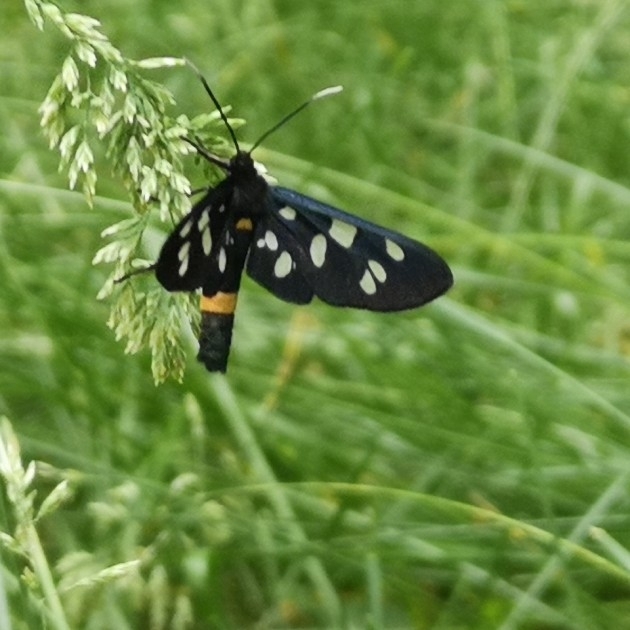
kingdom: Animalia
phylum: Arthropoda
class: Insecta
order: Lepidoptera
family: Erebidae
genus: Amata
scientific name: Amata phegea
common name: Nine-spotted
